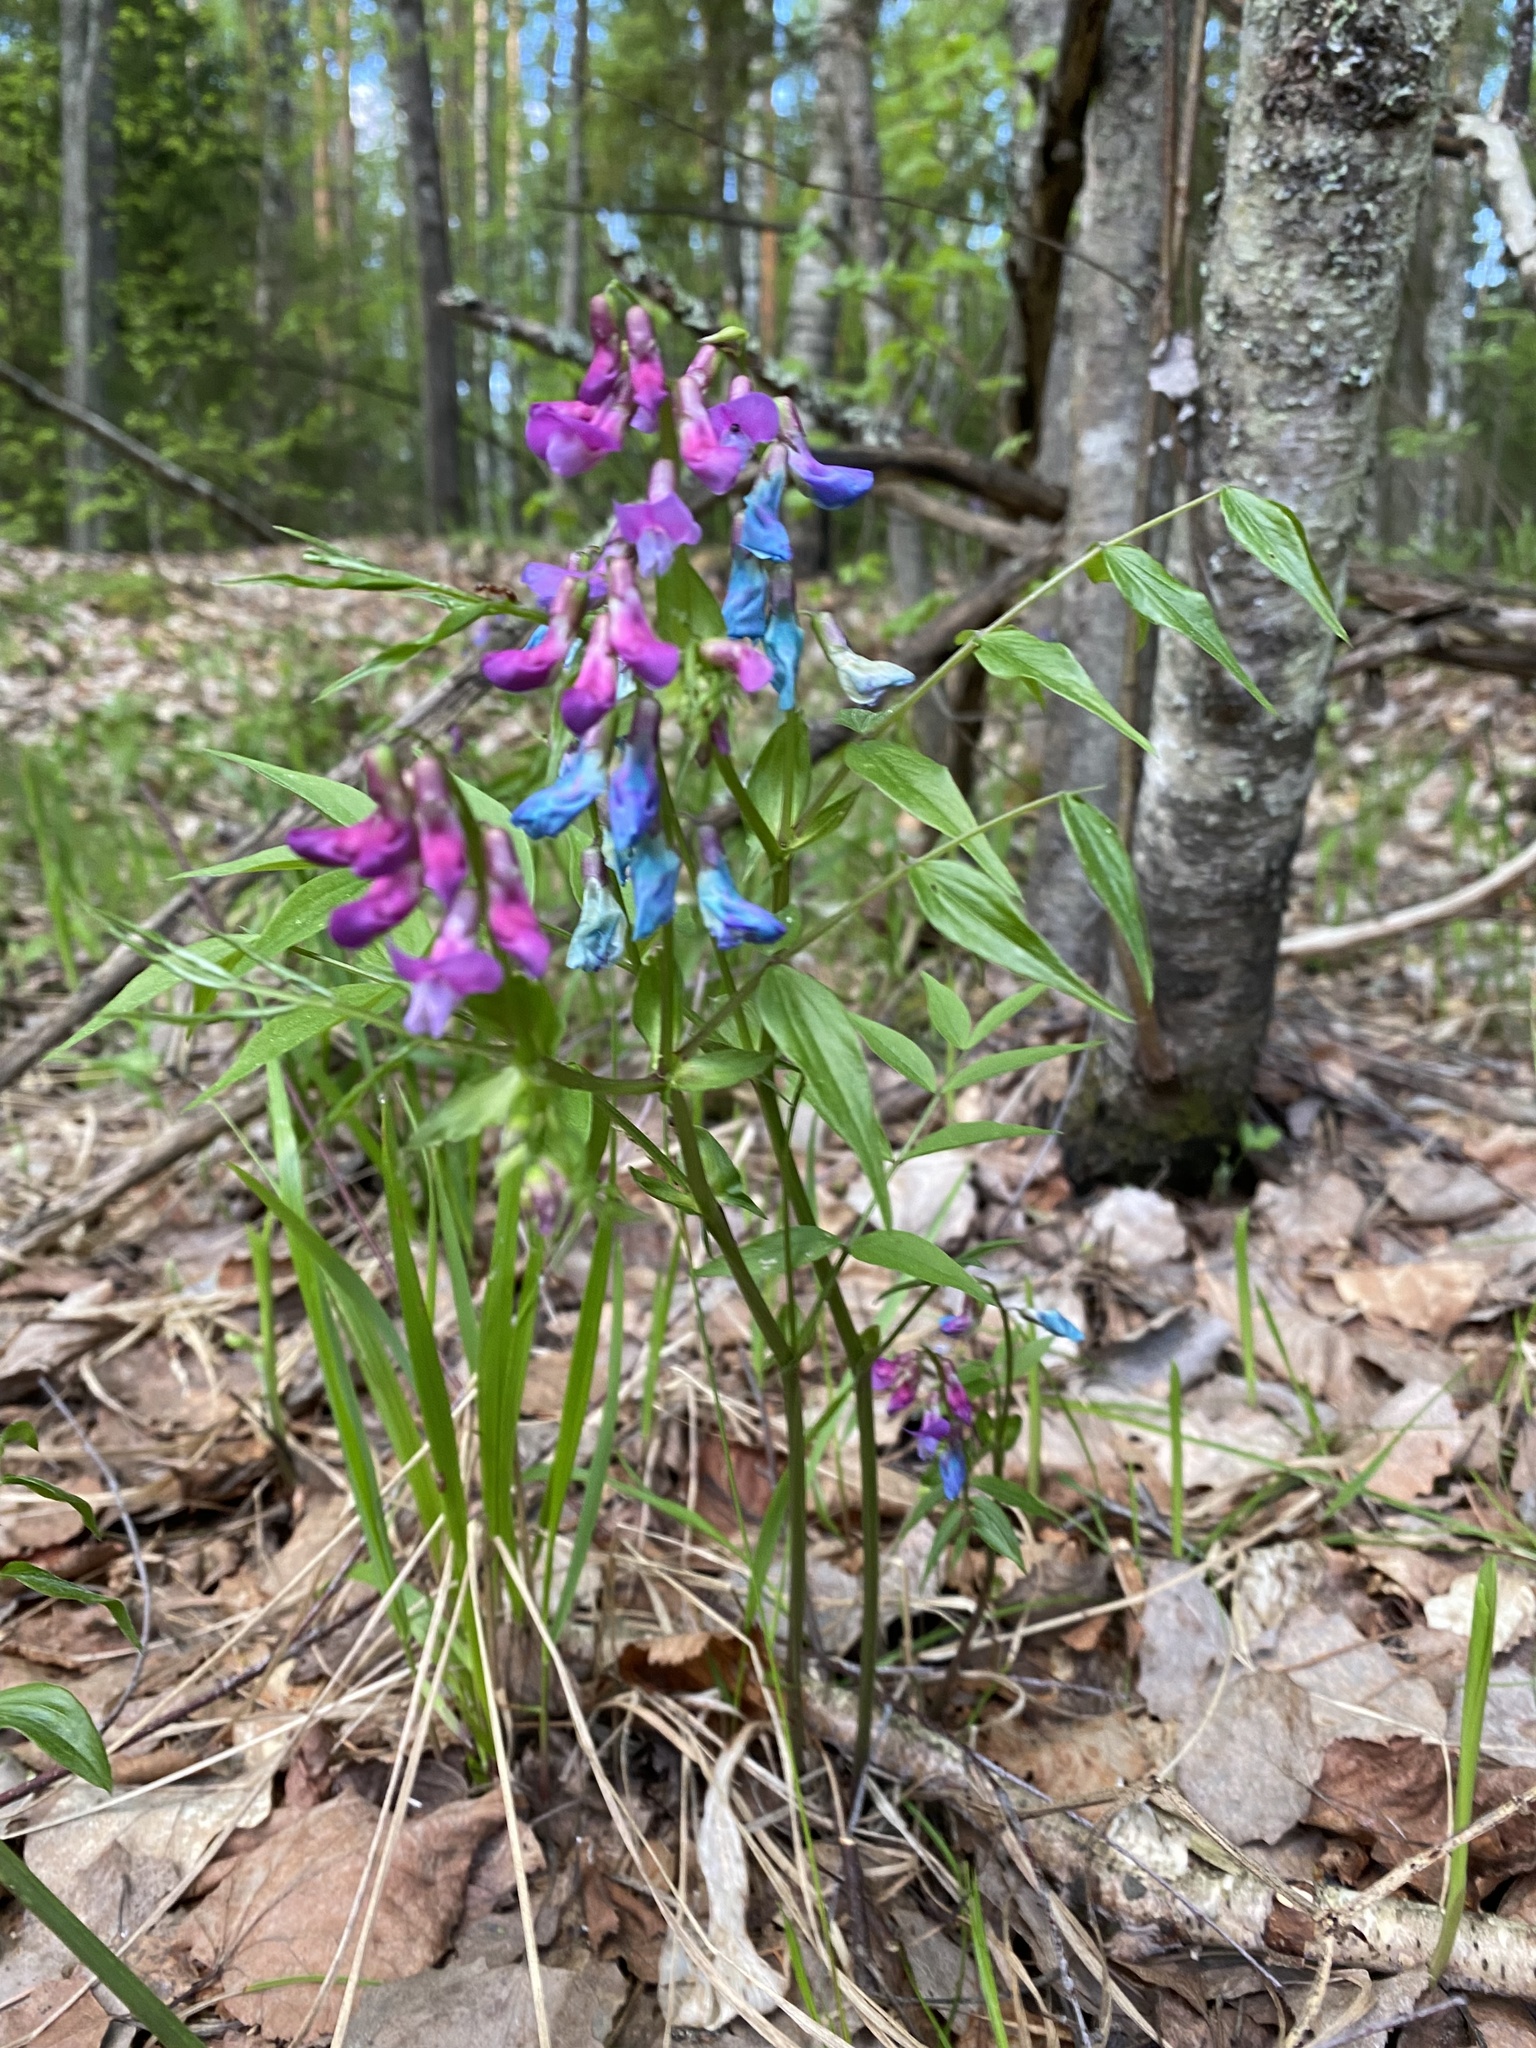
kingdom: Plantae
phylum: Tracheophyta
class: Magnoliopsida
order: Fabales
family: Fabaceae
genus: Lathyrus
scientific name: Lathyrus vernus
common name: Spring pea
